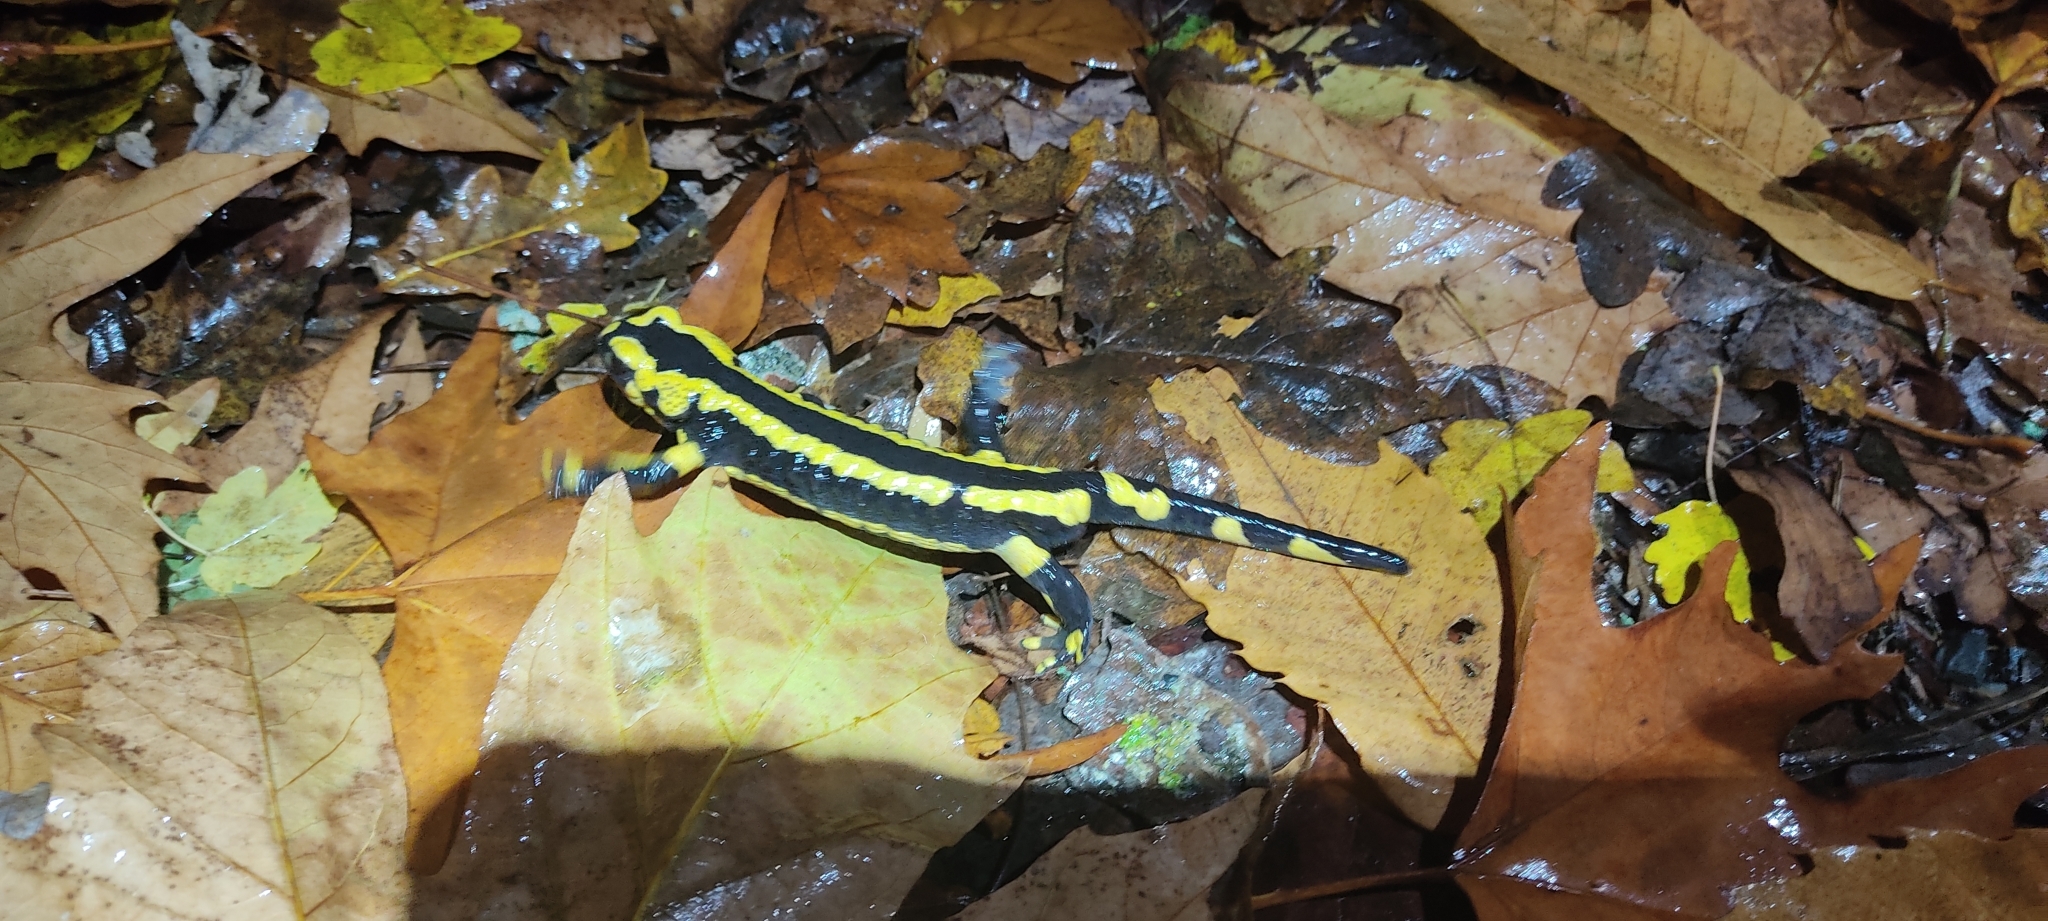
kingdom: Animalia
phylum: Chordata
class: Amphibia
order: Caudata
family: Salamandridae
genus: Salamandra
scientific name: Salamandra salamandra
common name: Fire salamander
